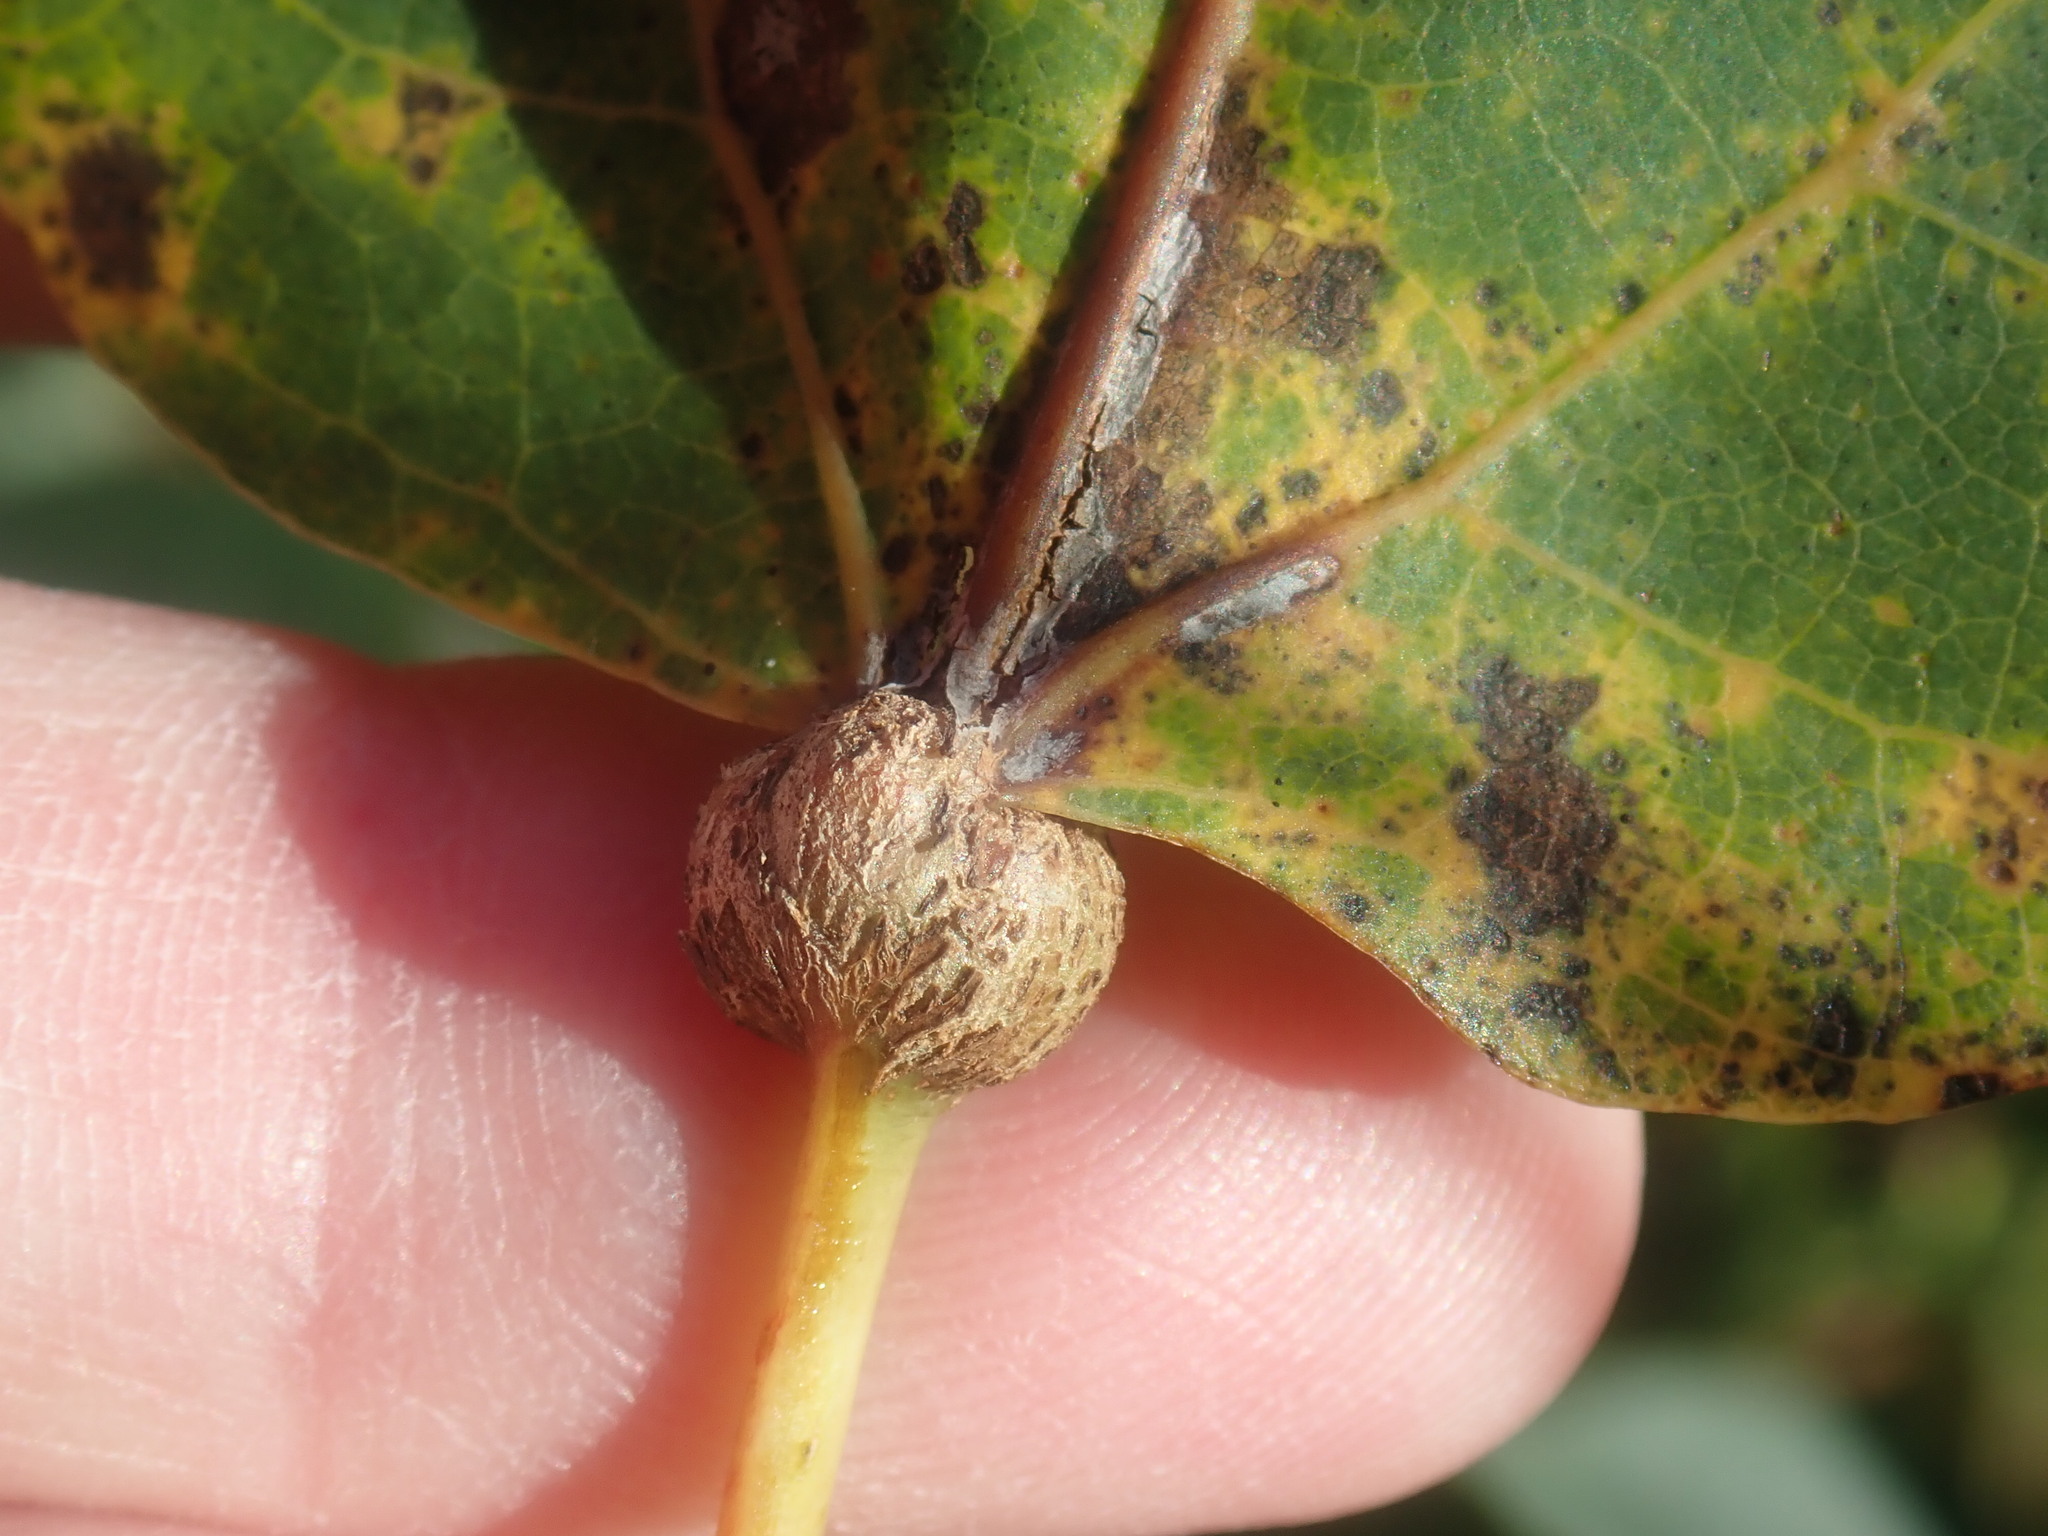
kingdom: Animalia
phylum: Arthropoda
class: Insecta
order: Lepidoptera
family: Nepticulidae
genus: Ectoedemia
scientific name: Ectoedemia populella
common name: Aspen petiole gall moth
